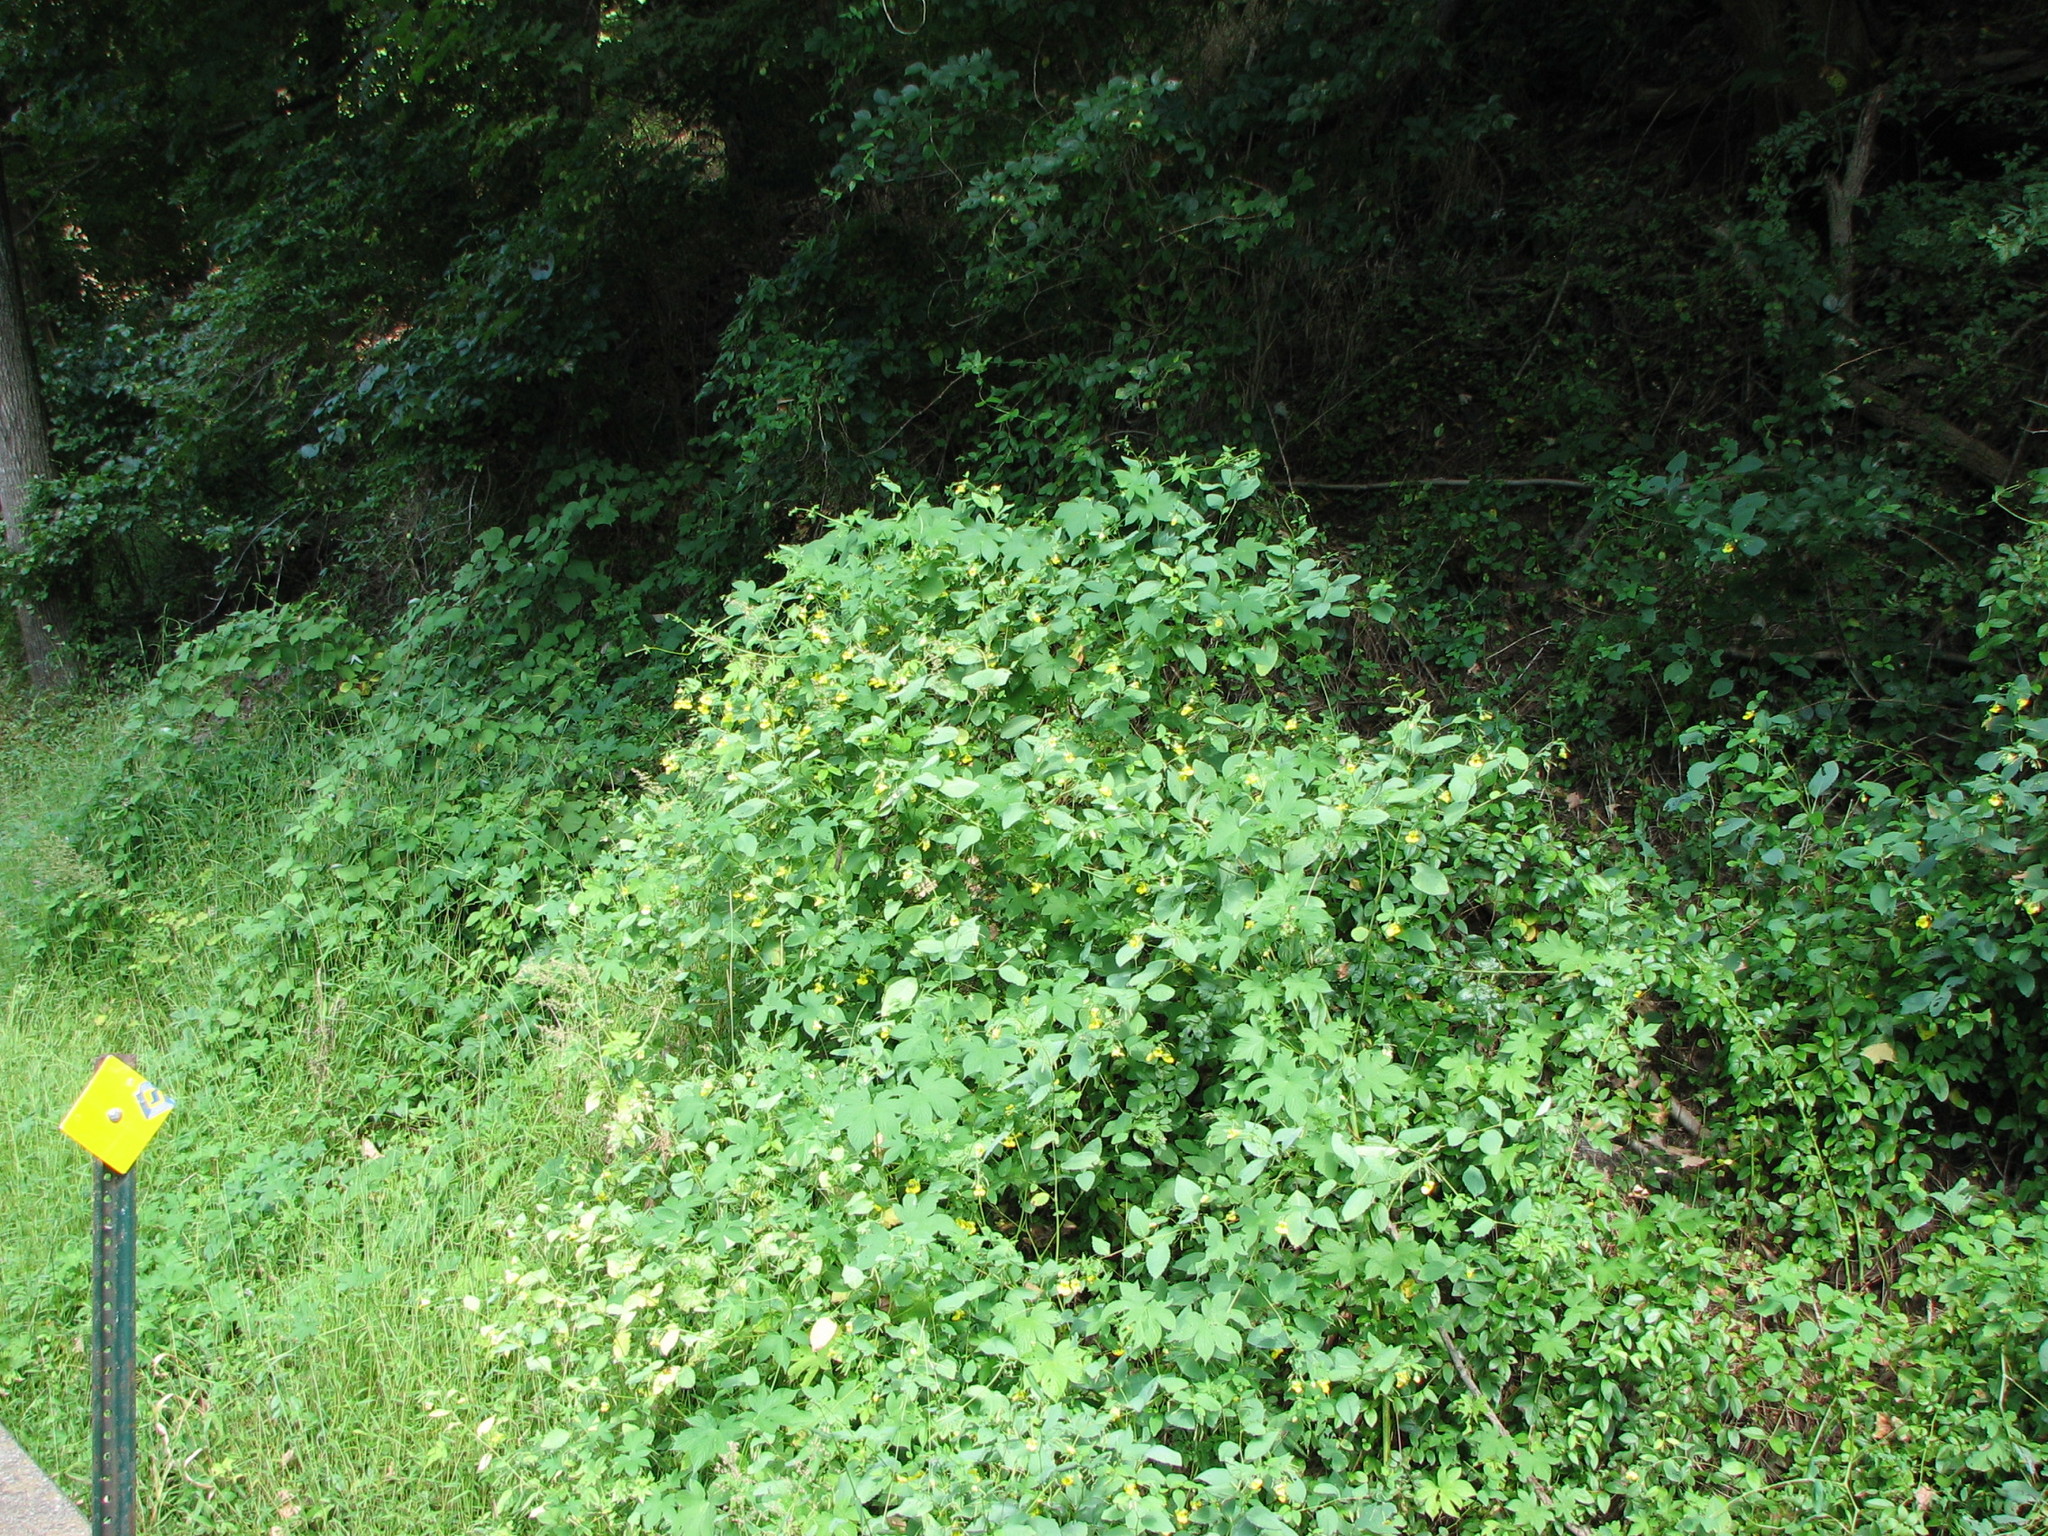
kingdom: Plantae
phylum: Tracheophyta
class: Magnoliopsida
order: Ericales
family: Balsaminaceae
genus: Impatiens
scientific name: Impatiens pallida
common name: Pale snapweed
